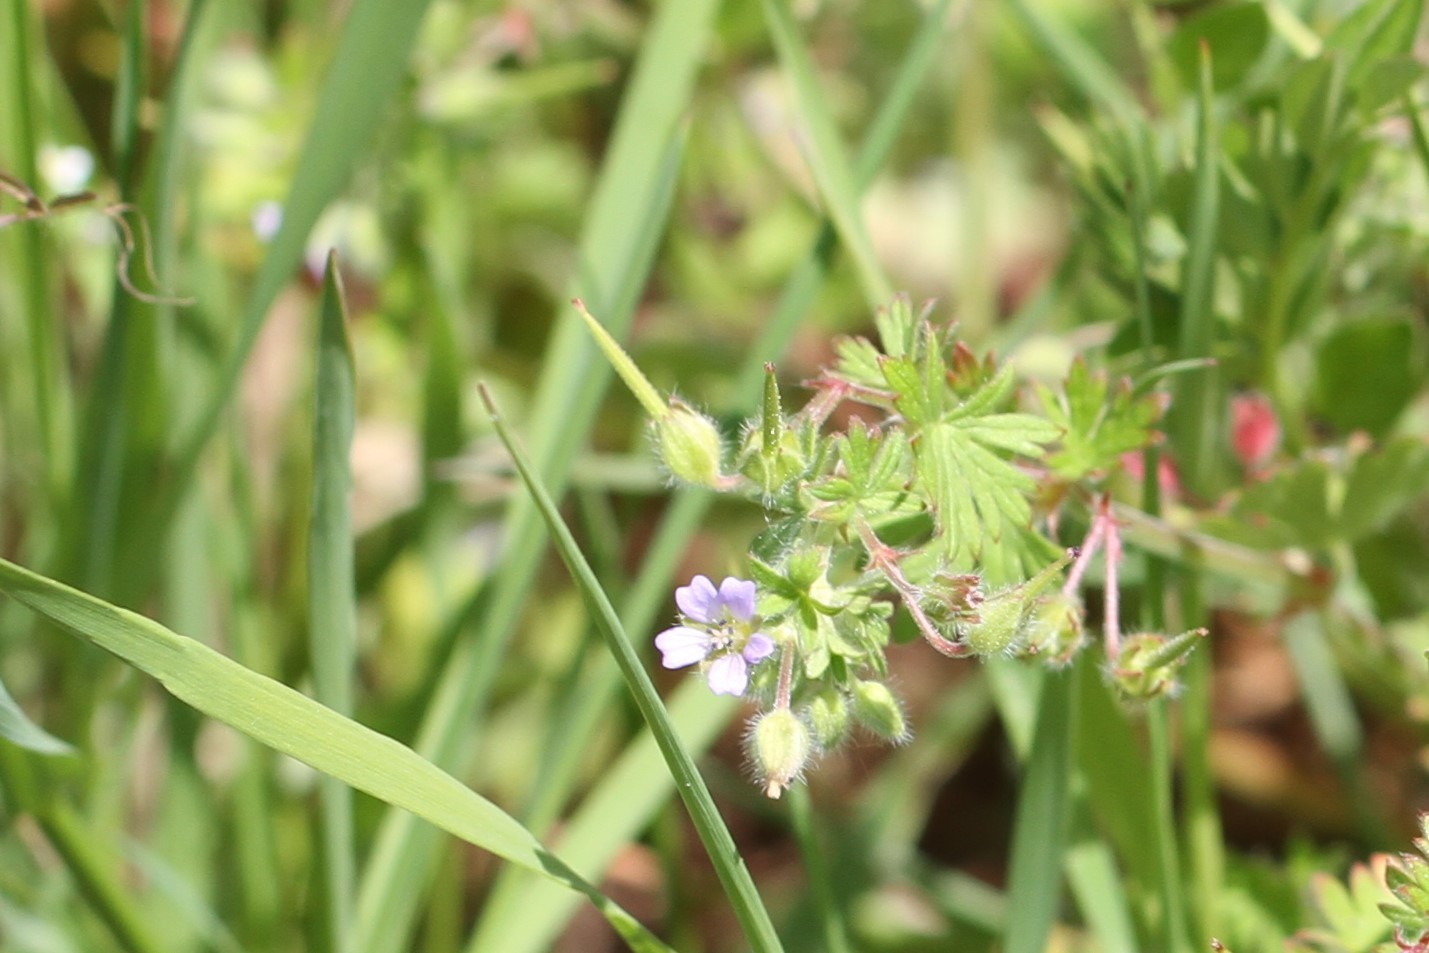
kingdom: Plantae
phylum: Tracheophyta
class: Magnoliopsida
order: Geraniales
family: Geraniaceae
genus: Geranium
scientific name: Geranium pusillum
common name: Small geranium
